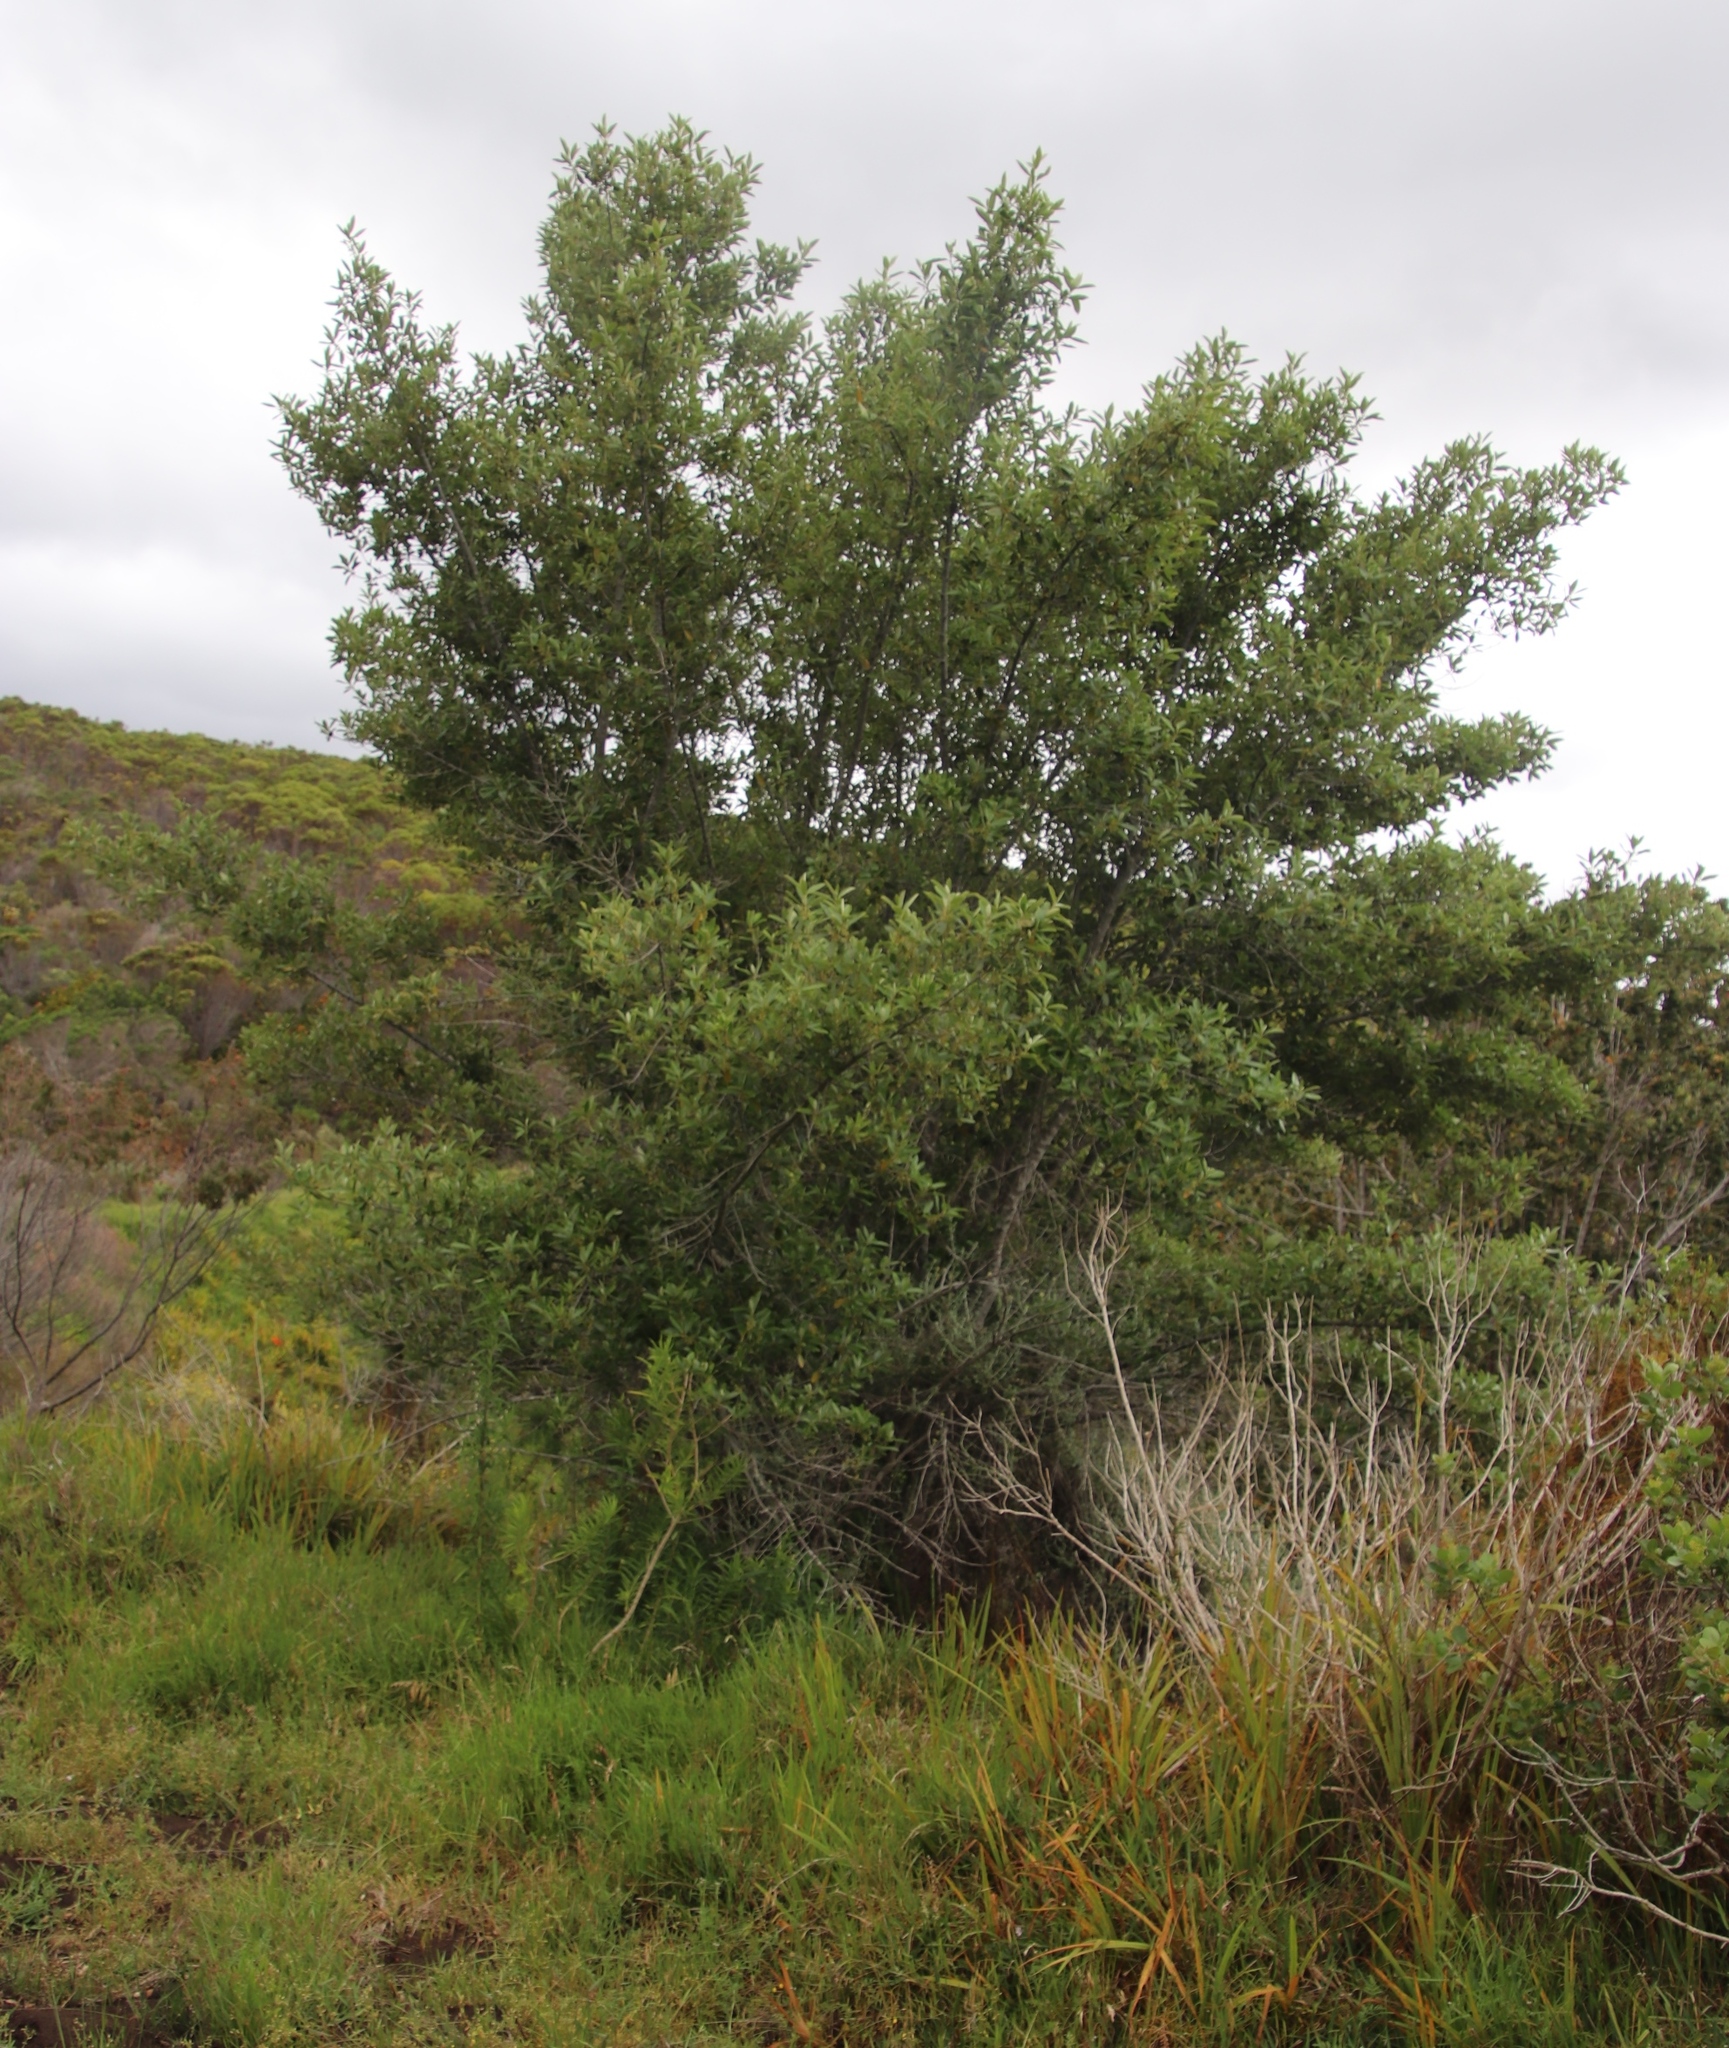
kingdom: Plantae
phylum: Tracheophyta
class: Magnoliopsida
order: Malpighiales
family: Achariaceae
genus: Kiggelaria
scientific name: Kiggelaria africana
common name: Wild peach
